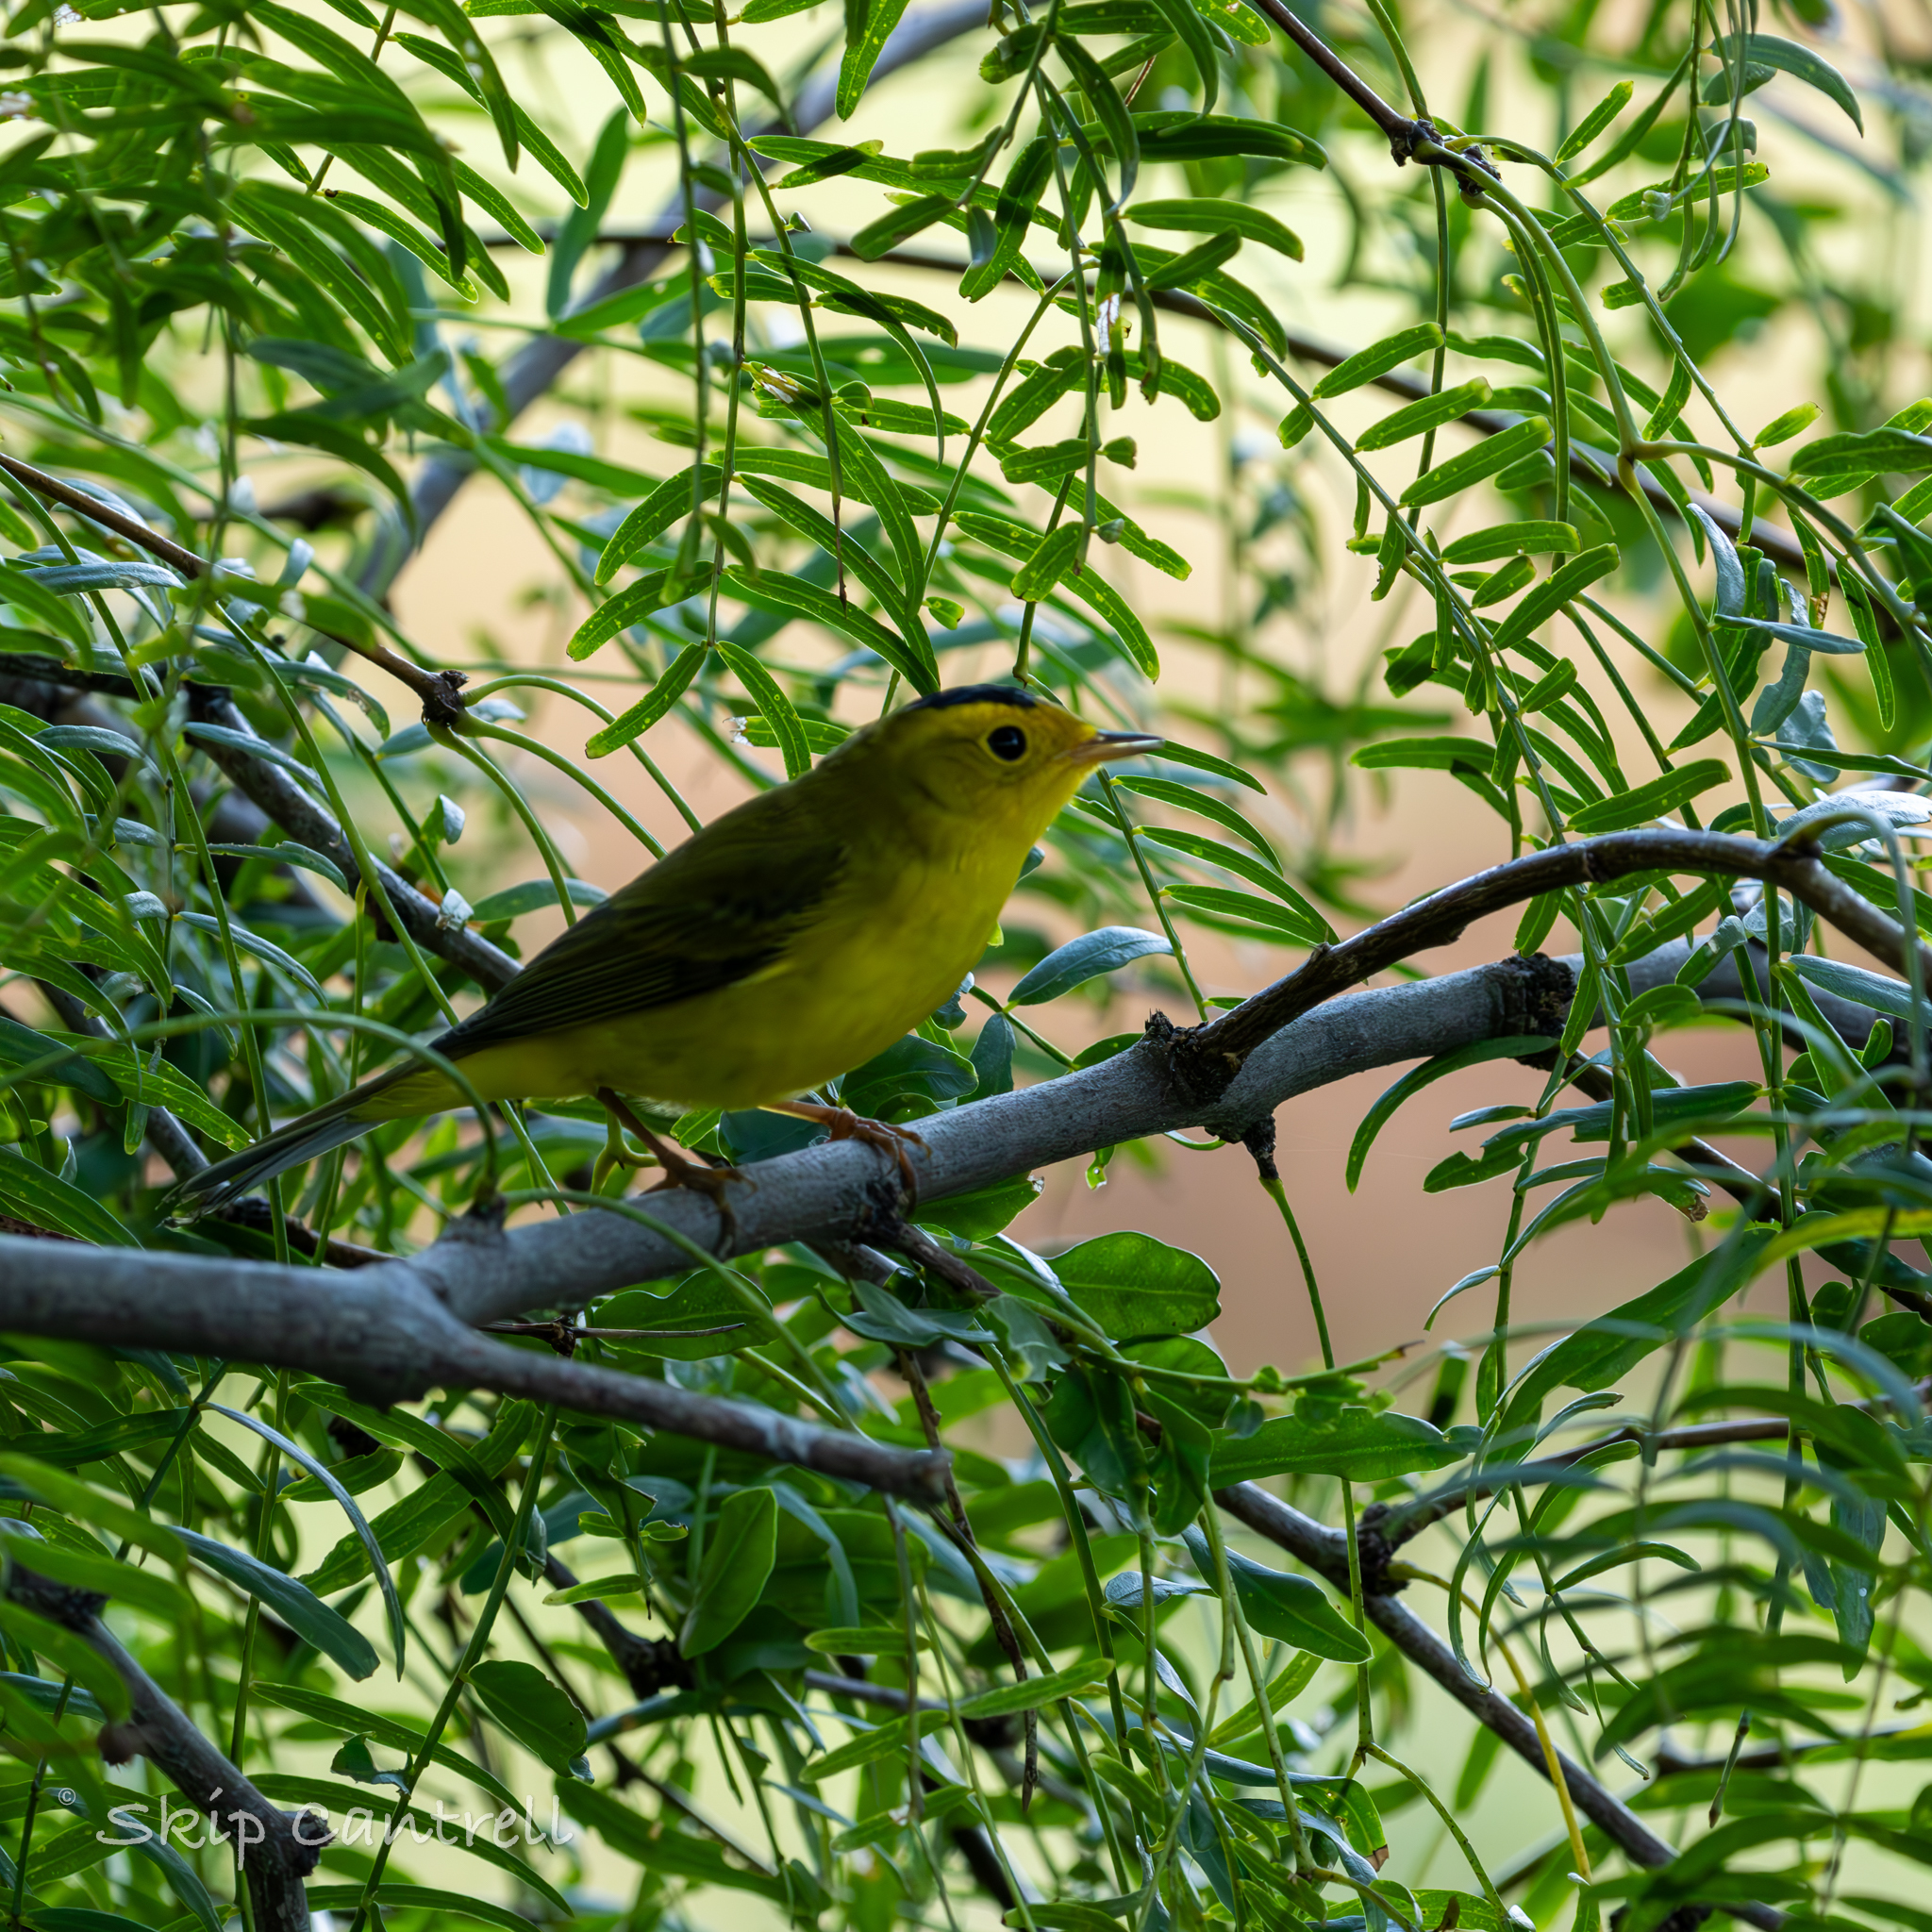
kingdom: Animalia
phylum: Chordata
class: Aves
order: Passeriformes
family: Parulidae
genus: Cardellina
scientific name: Cardellina pusilla
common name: Wilson's warbler
